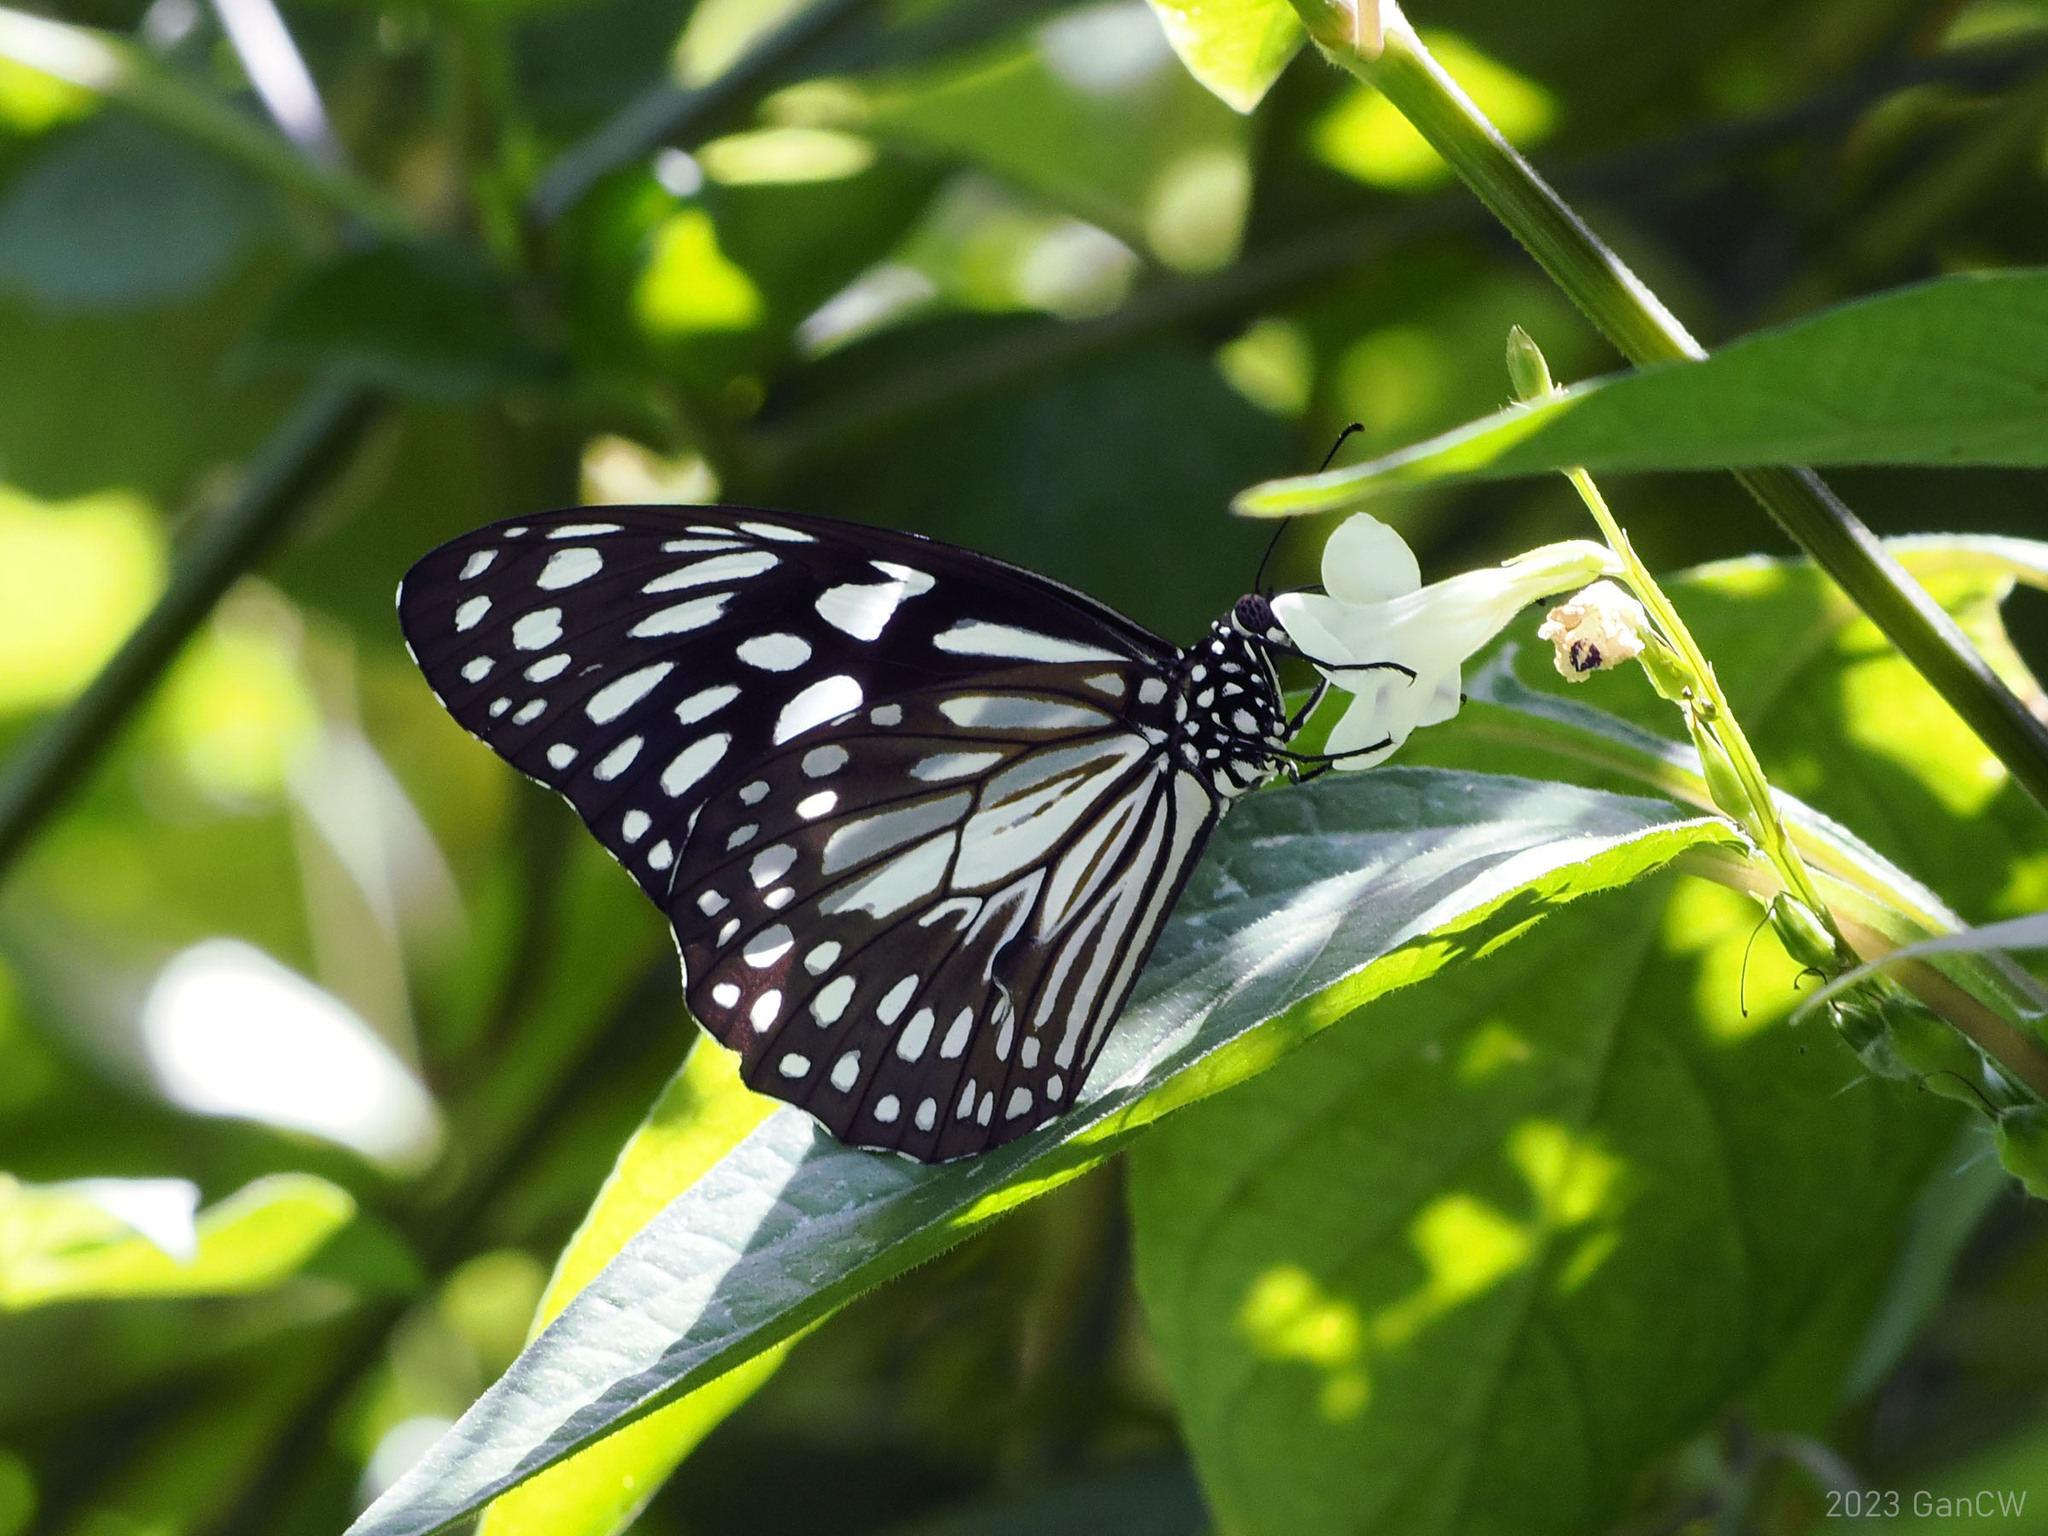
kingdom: Animalia
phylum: Arthropoda
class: Insecta
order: Lepidoptera
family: Nymphalidae
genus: Tirumala
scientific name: Tirumala hamata
